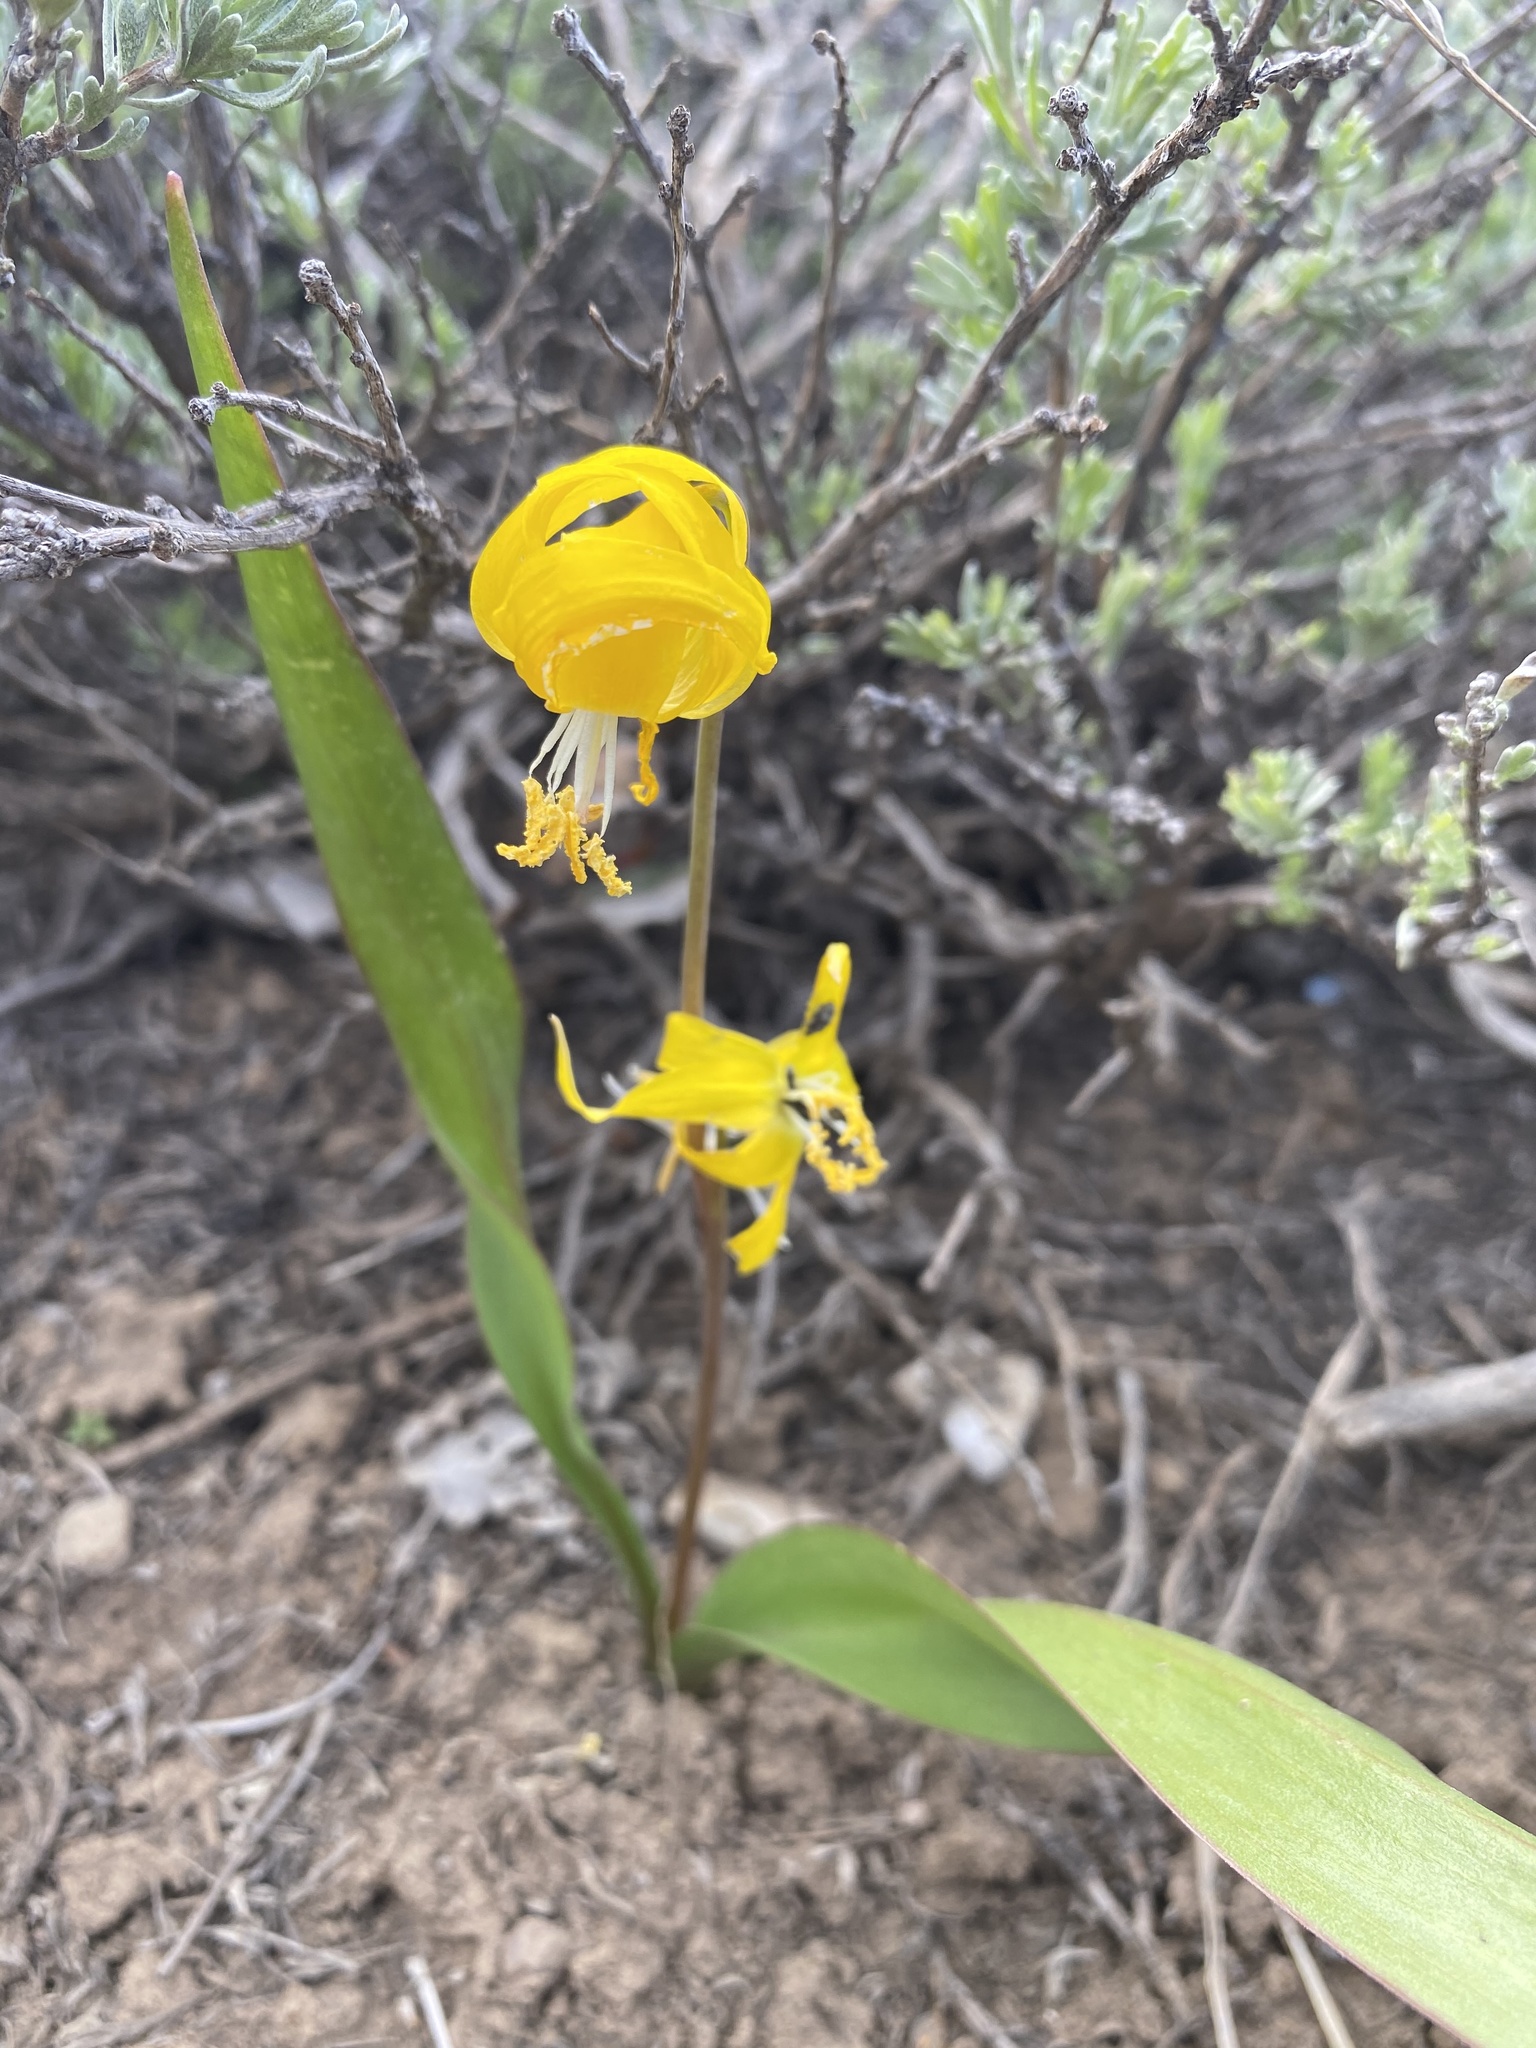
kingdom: Plantae
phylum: Tracheophyta
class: Liliopsida
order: Liliales
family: Liliaceae
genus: Erythronium
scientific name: Erythronium grandiflorum
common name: Avalanche-lily
